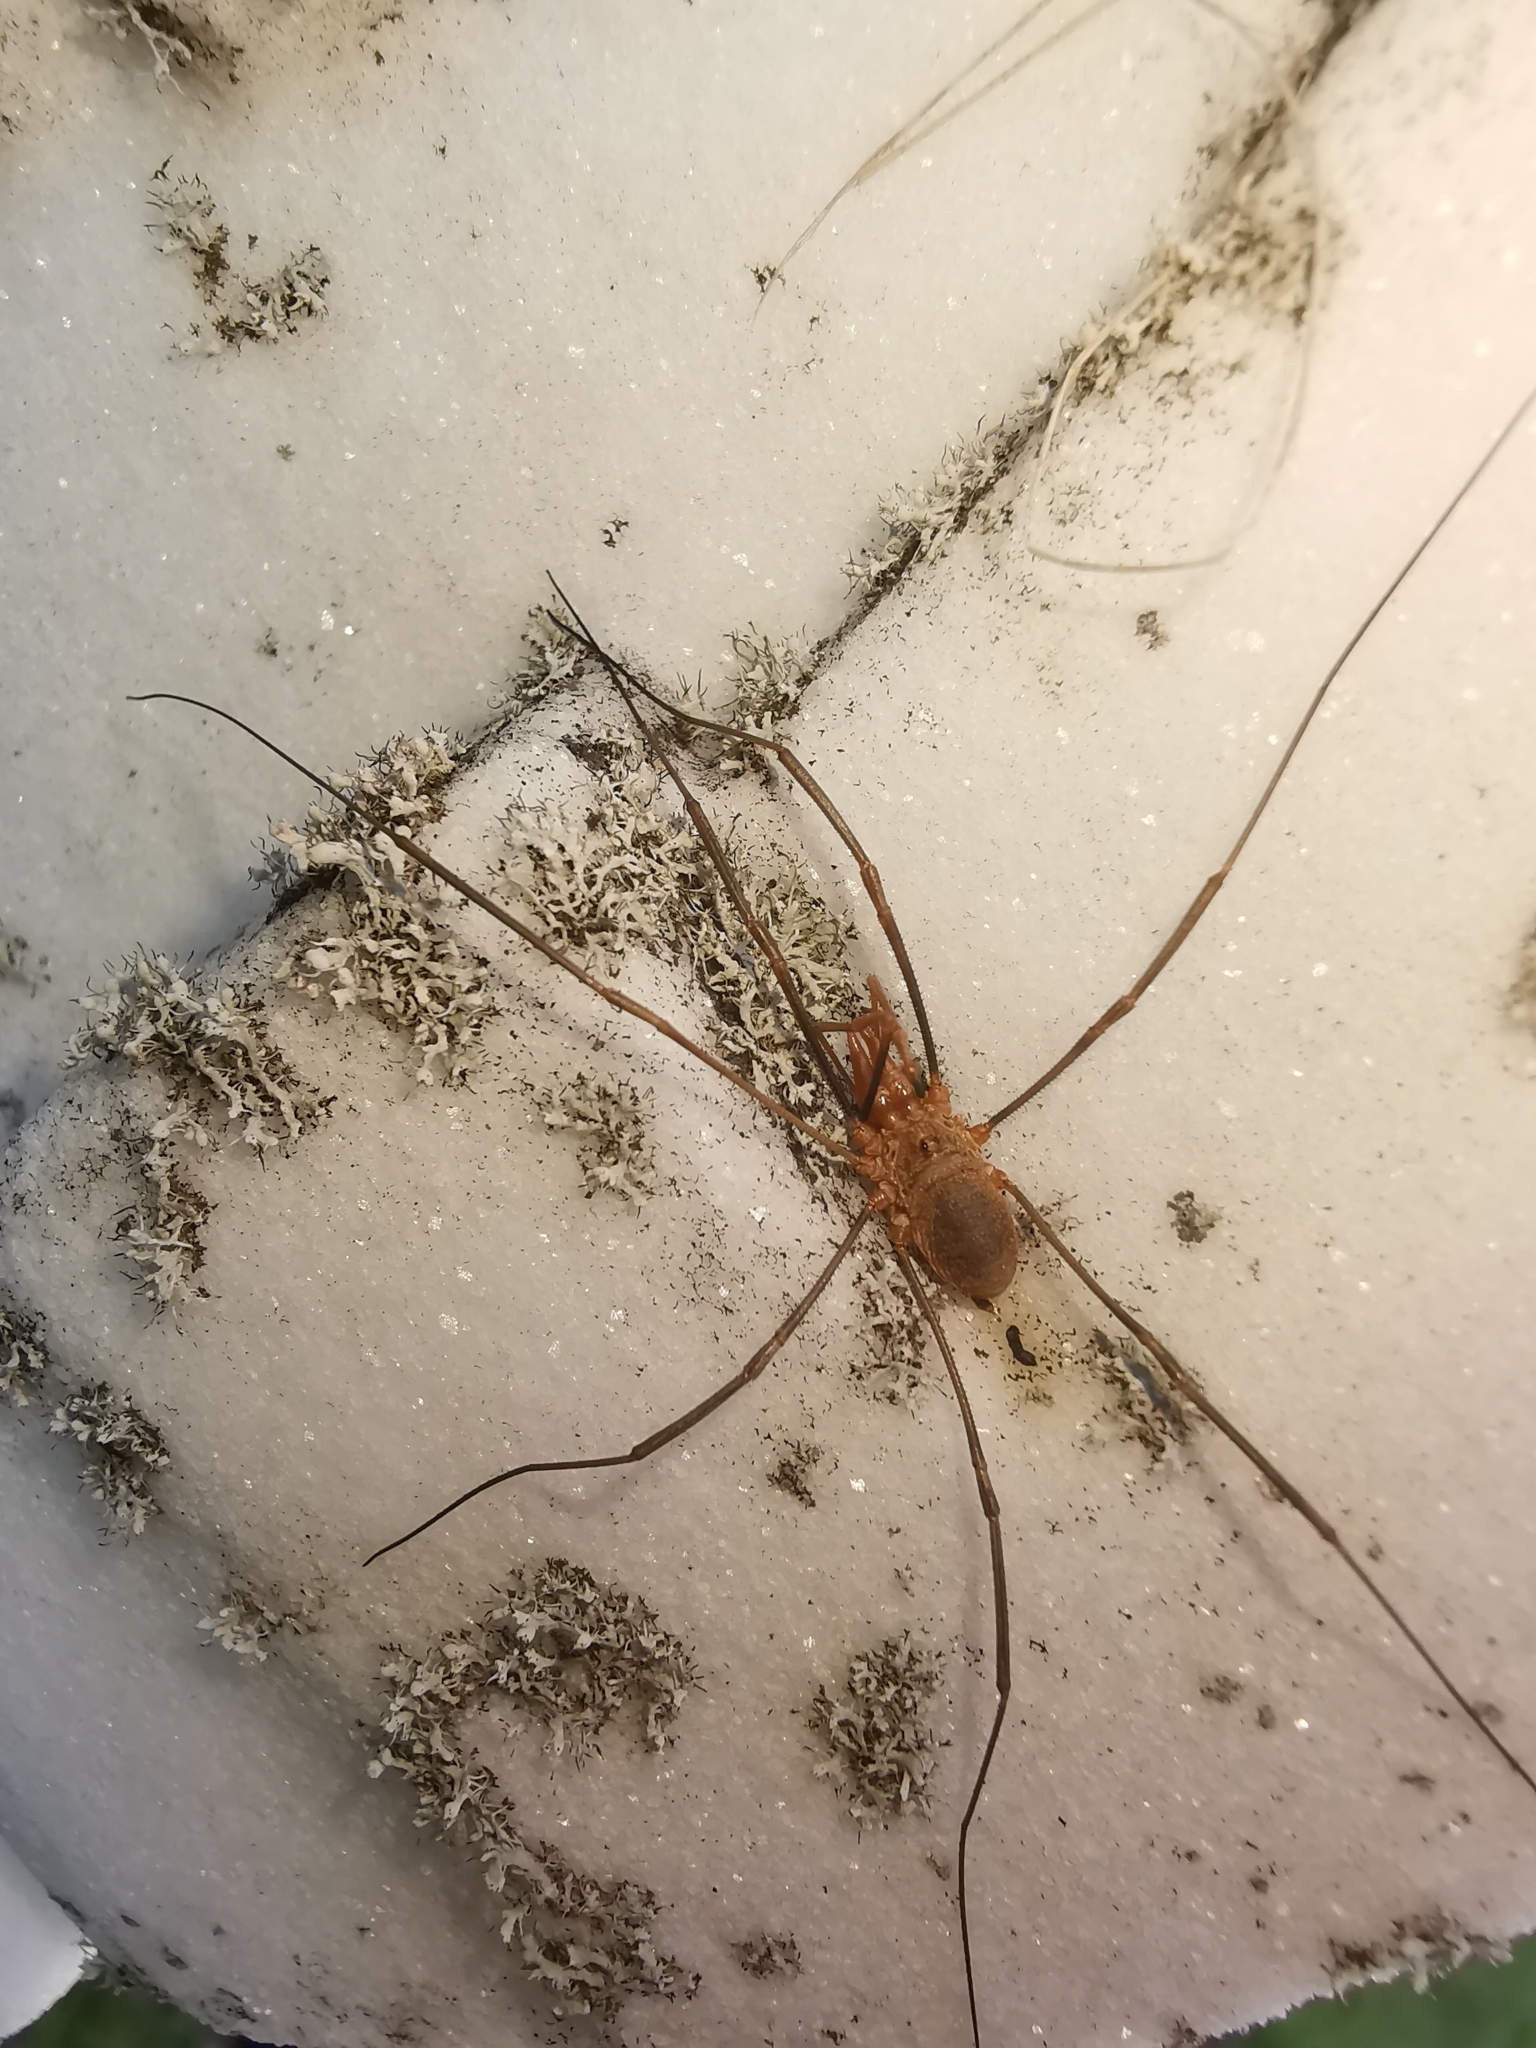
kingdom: Animalia
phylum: Arthropoda
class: Arachnida
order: Opiliones
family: Phalangiidae
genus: Phalangium
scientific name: Phalangium opilio
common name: Daddy longleg
